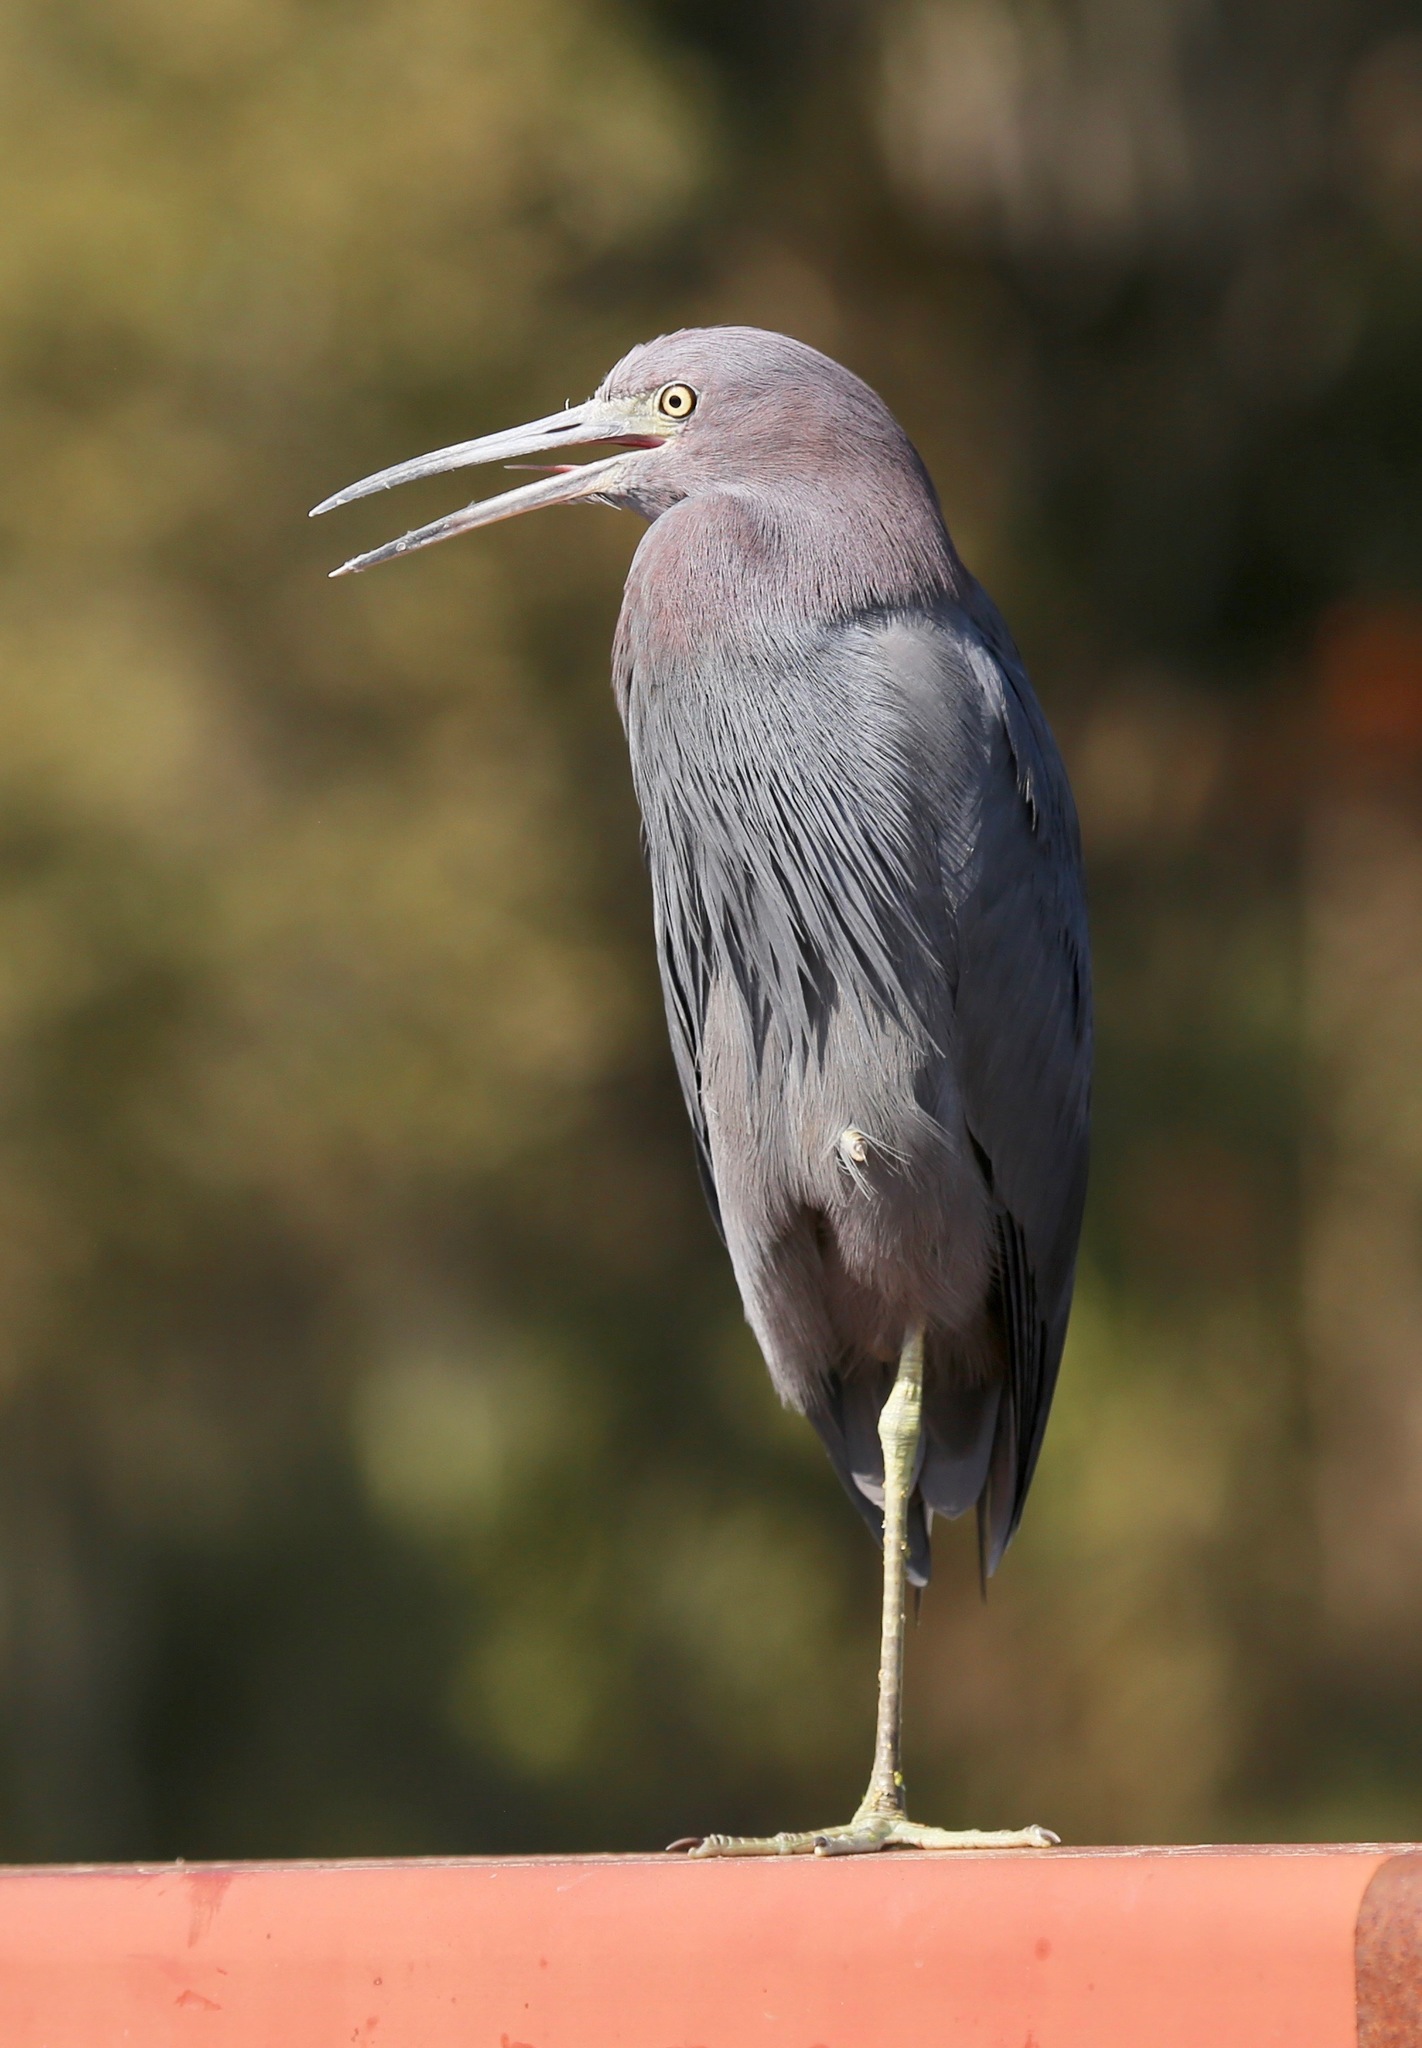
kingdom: Animalia
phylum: Chordata
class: Aves
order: Pelecaniformes
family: Ardeidae
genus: Egretta
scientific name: Egretta caerulea
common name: Little blue heron
